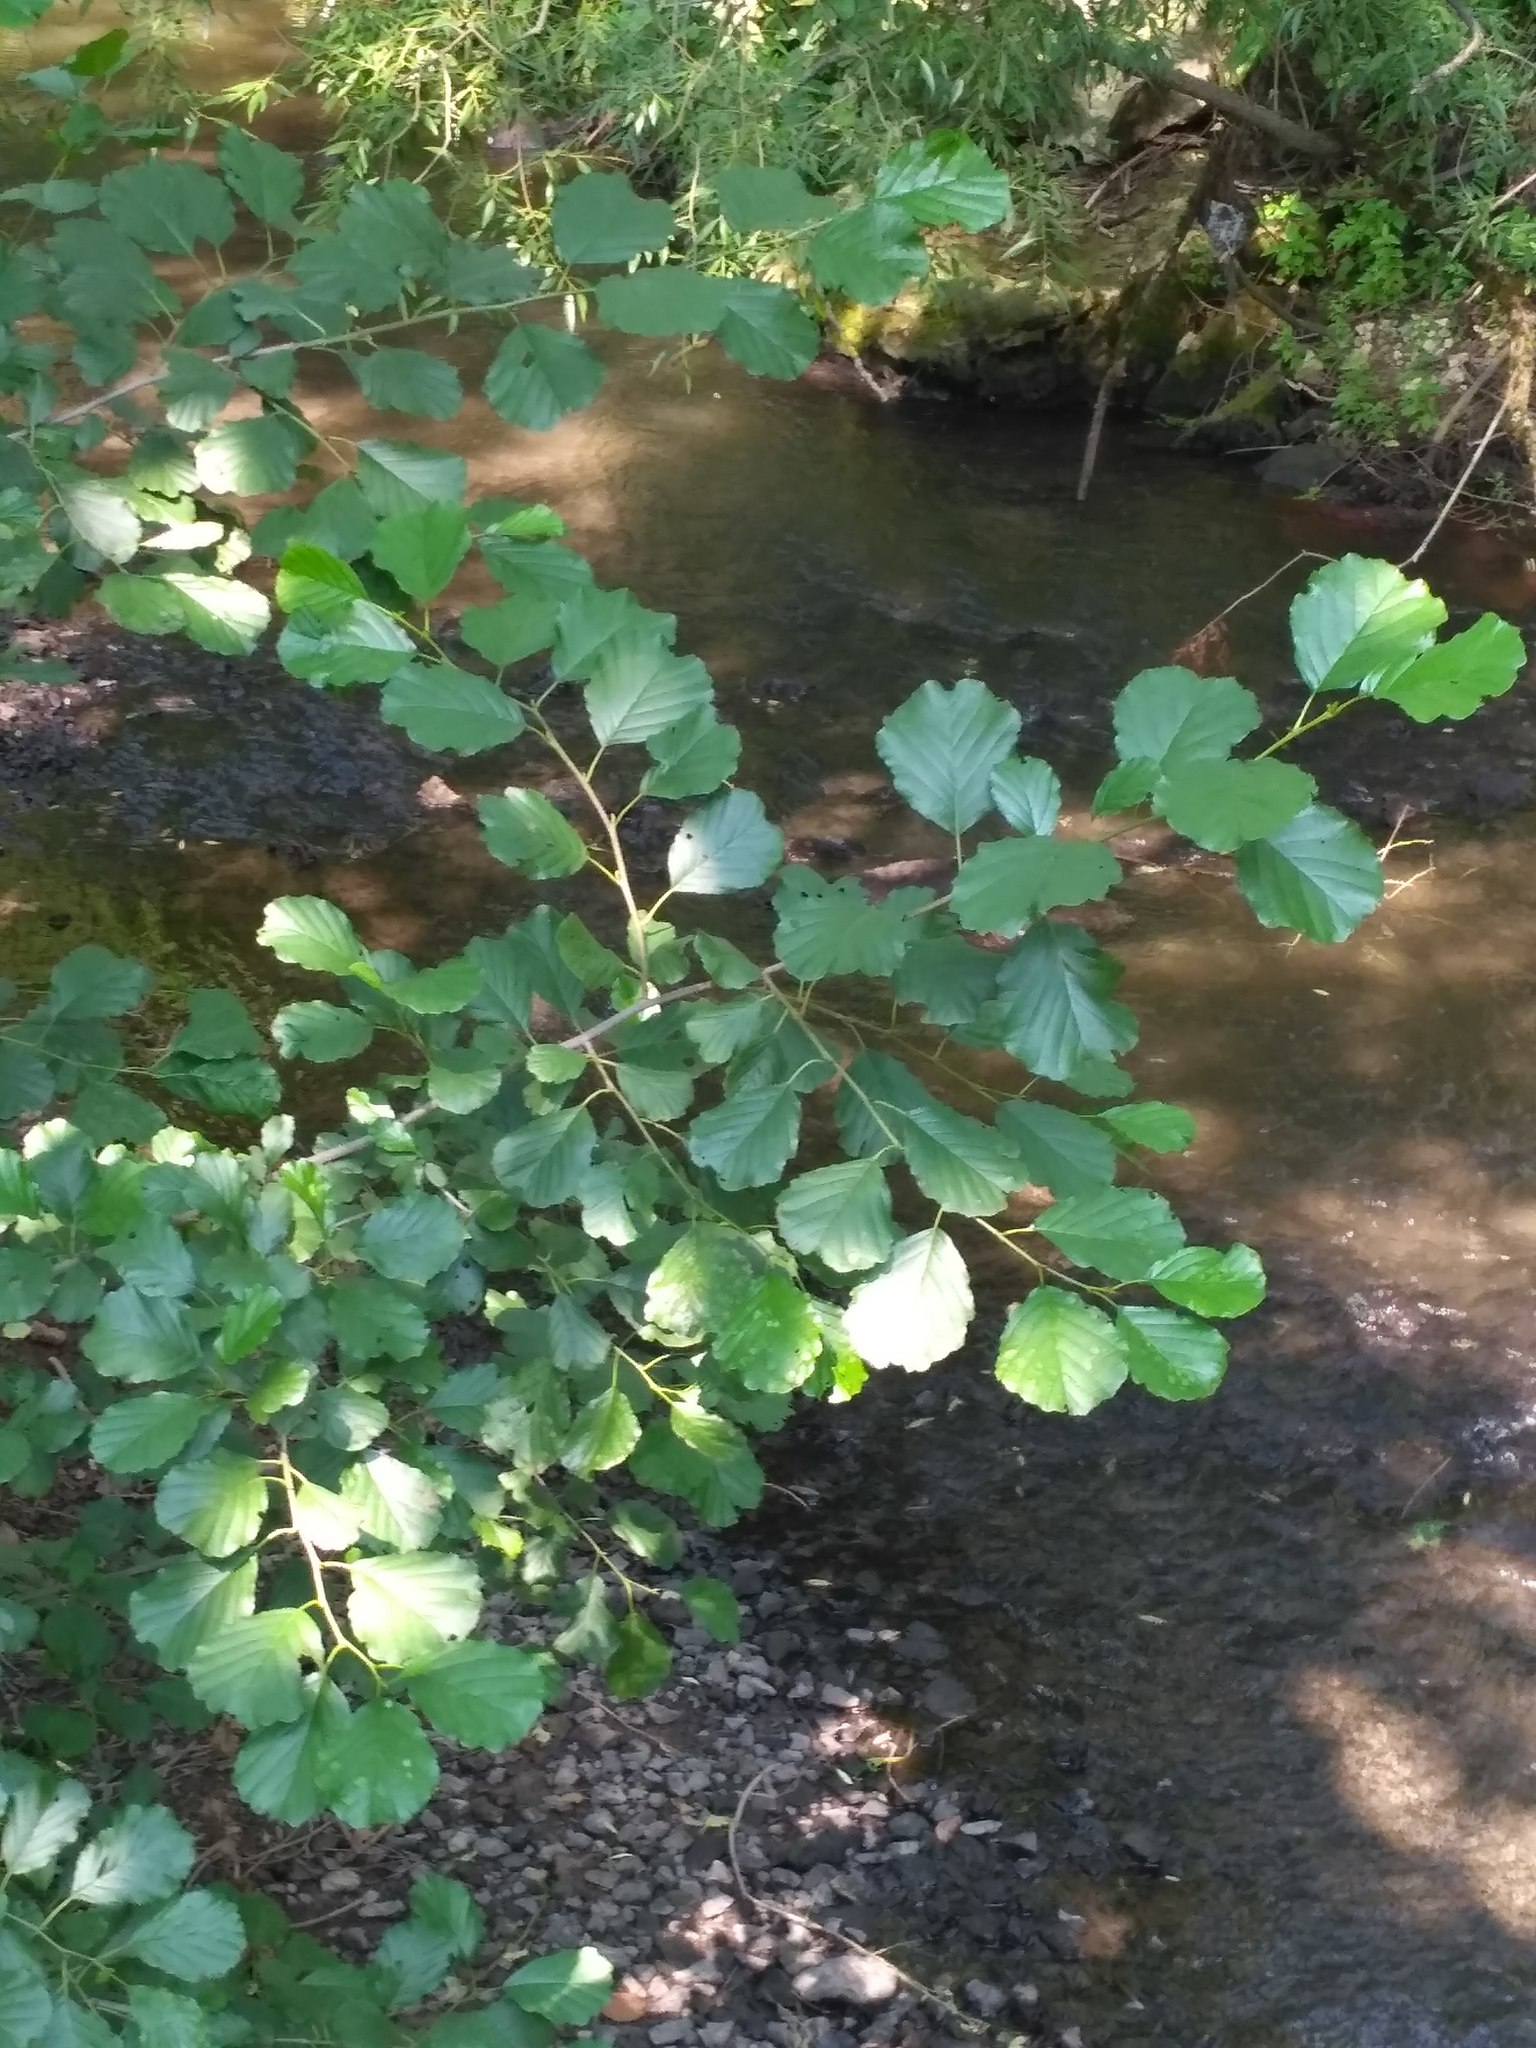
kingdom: Plantae
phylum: Tracheophyta
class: Magnoliopsida
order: Fagales
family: Betulaceae
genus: Alnus
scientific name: Alnus glutinosa
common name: Black alder
